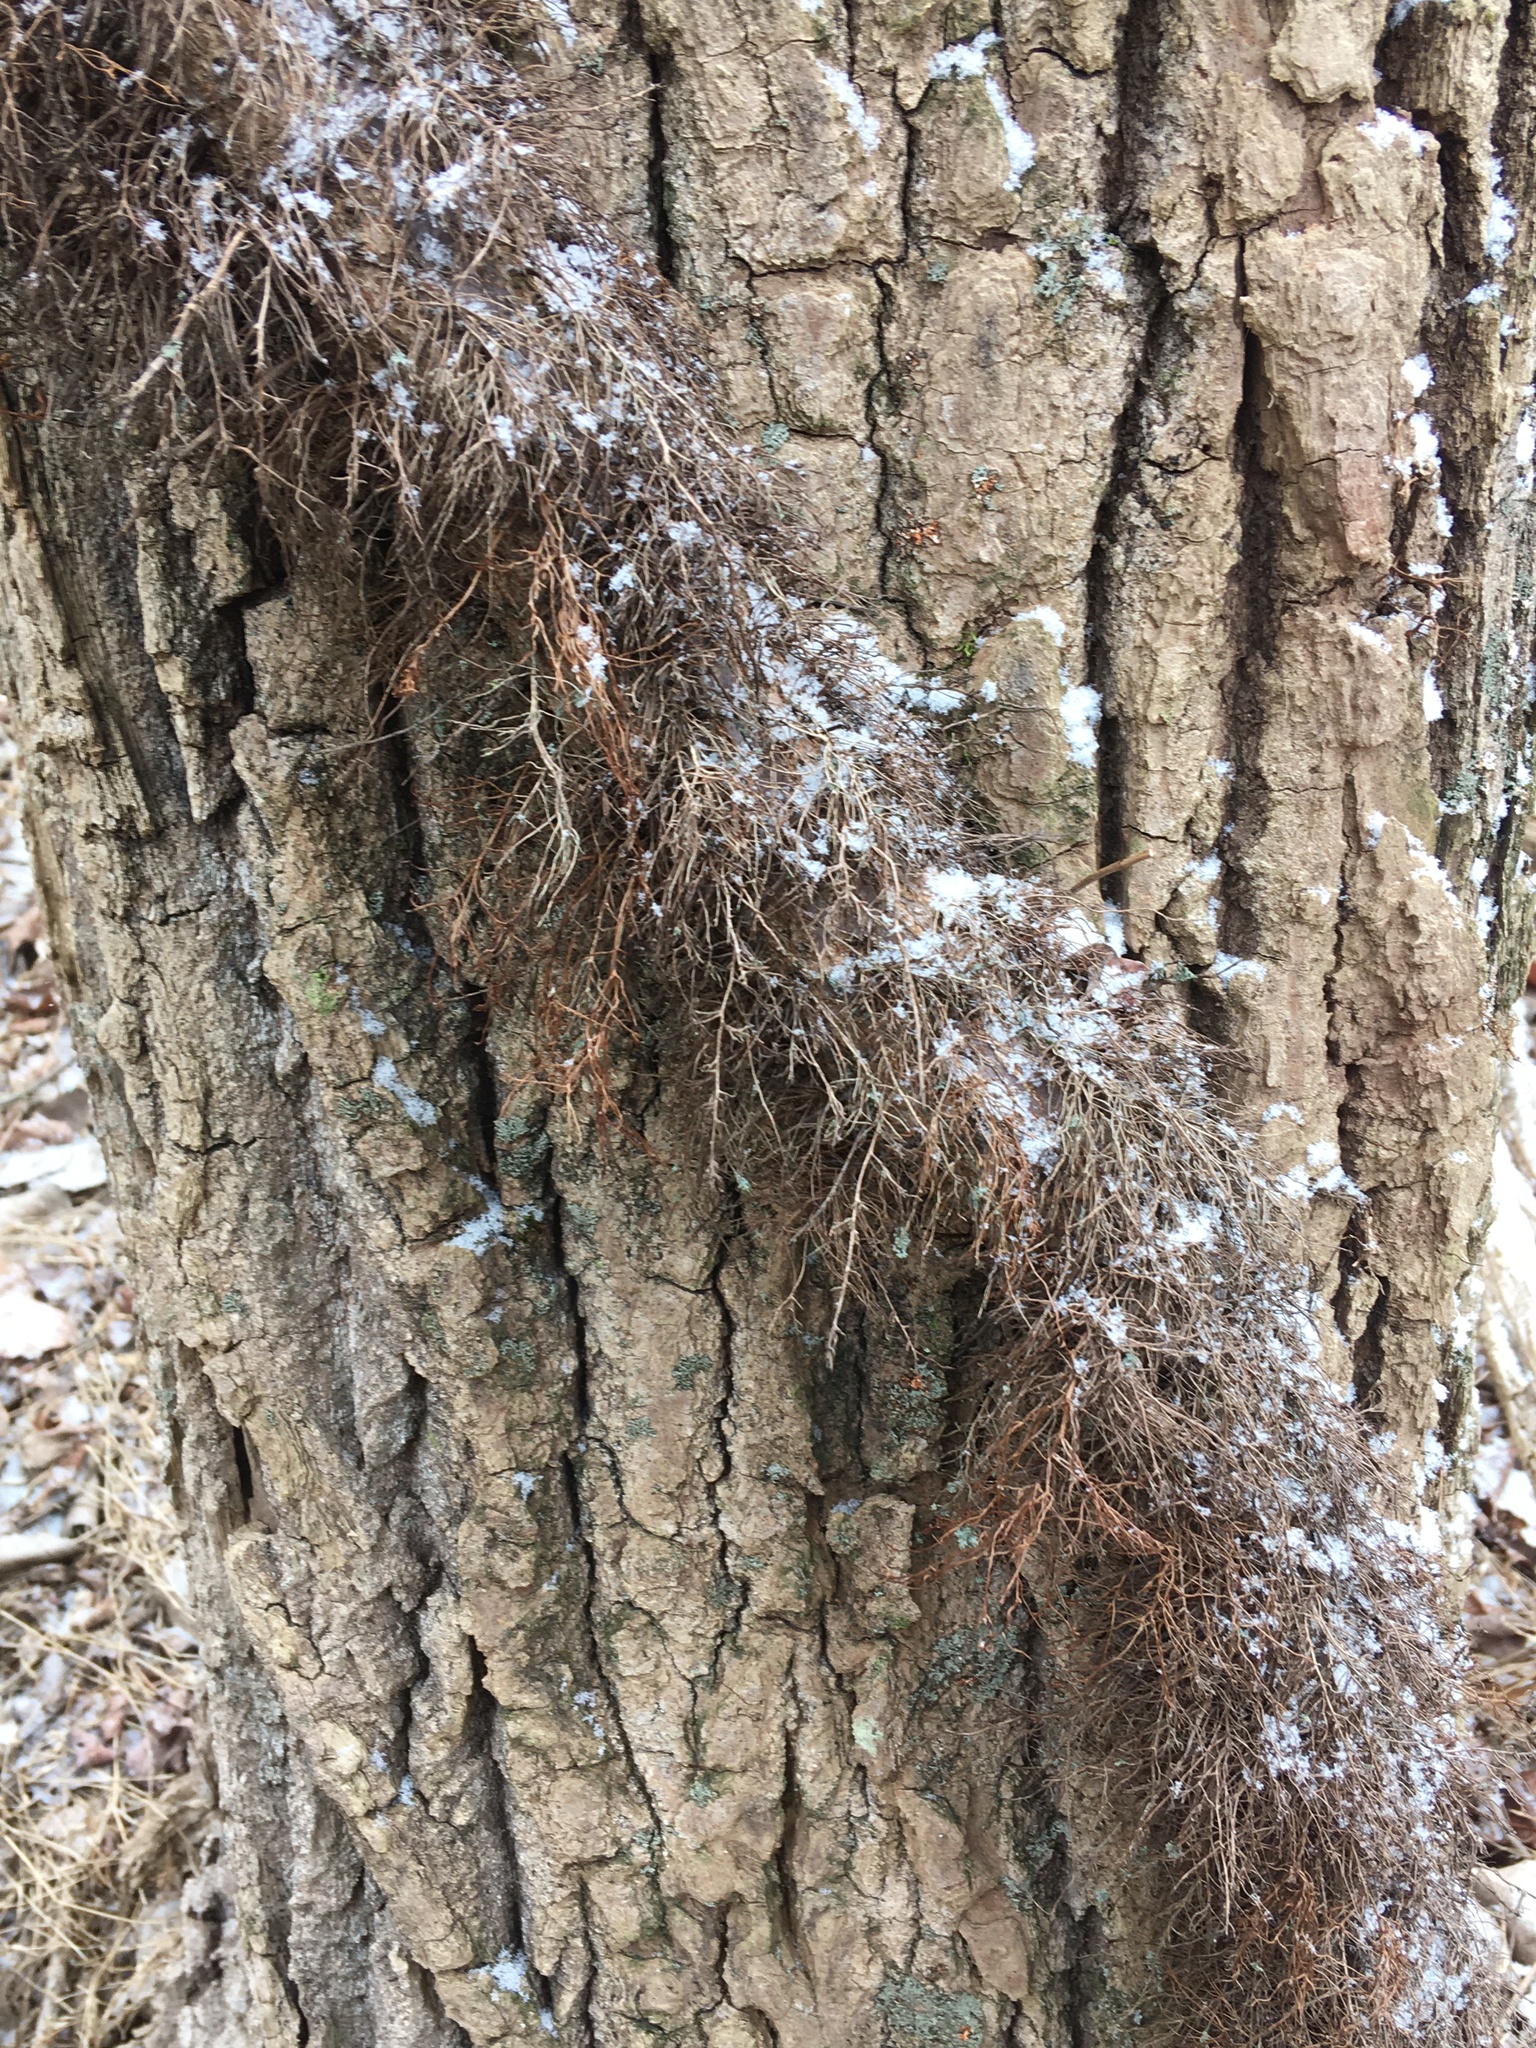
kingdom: Plantae
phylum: Tracheophyta
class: Magnoliopsida
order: Sapindales
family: Anacardiaceae
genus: Toxicodendron
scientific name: Toxicodendron radicans
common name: Poison ivy
